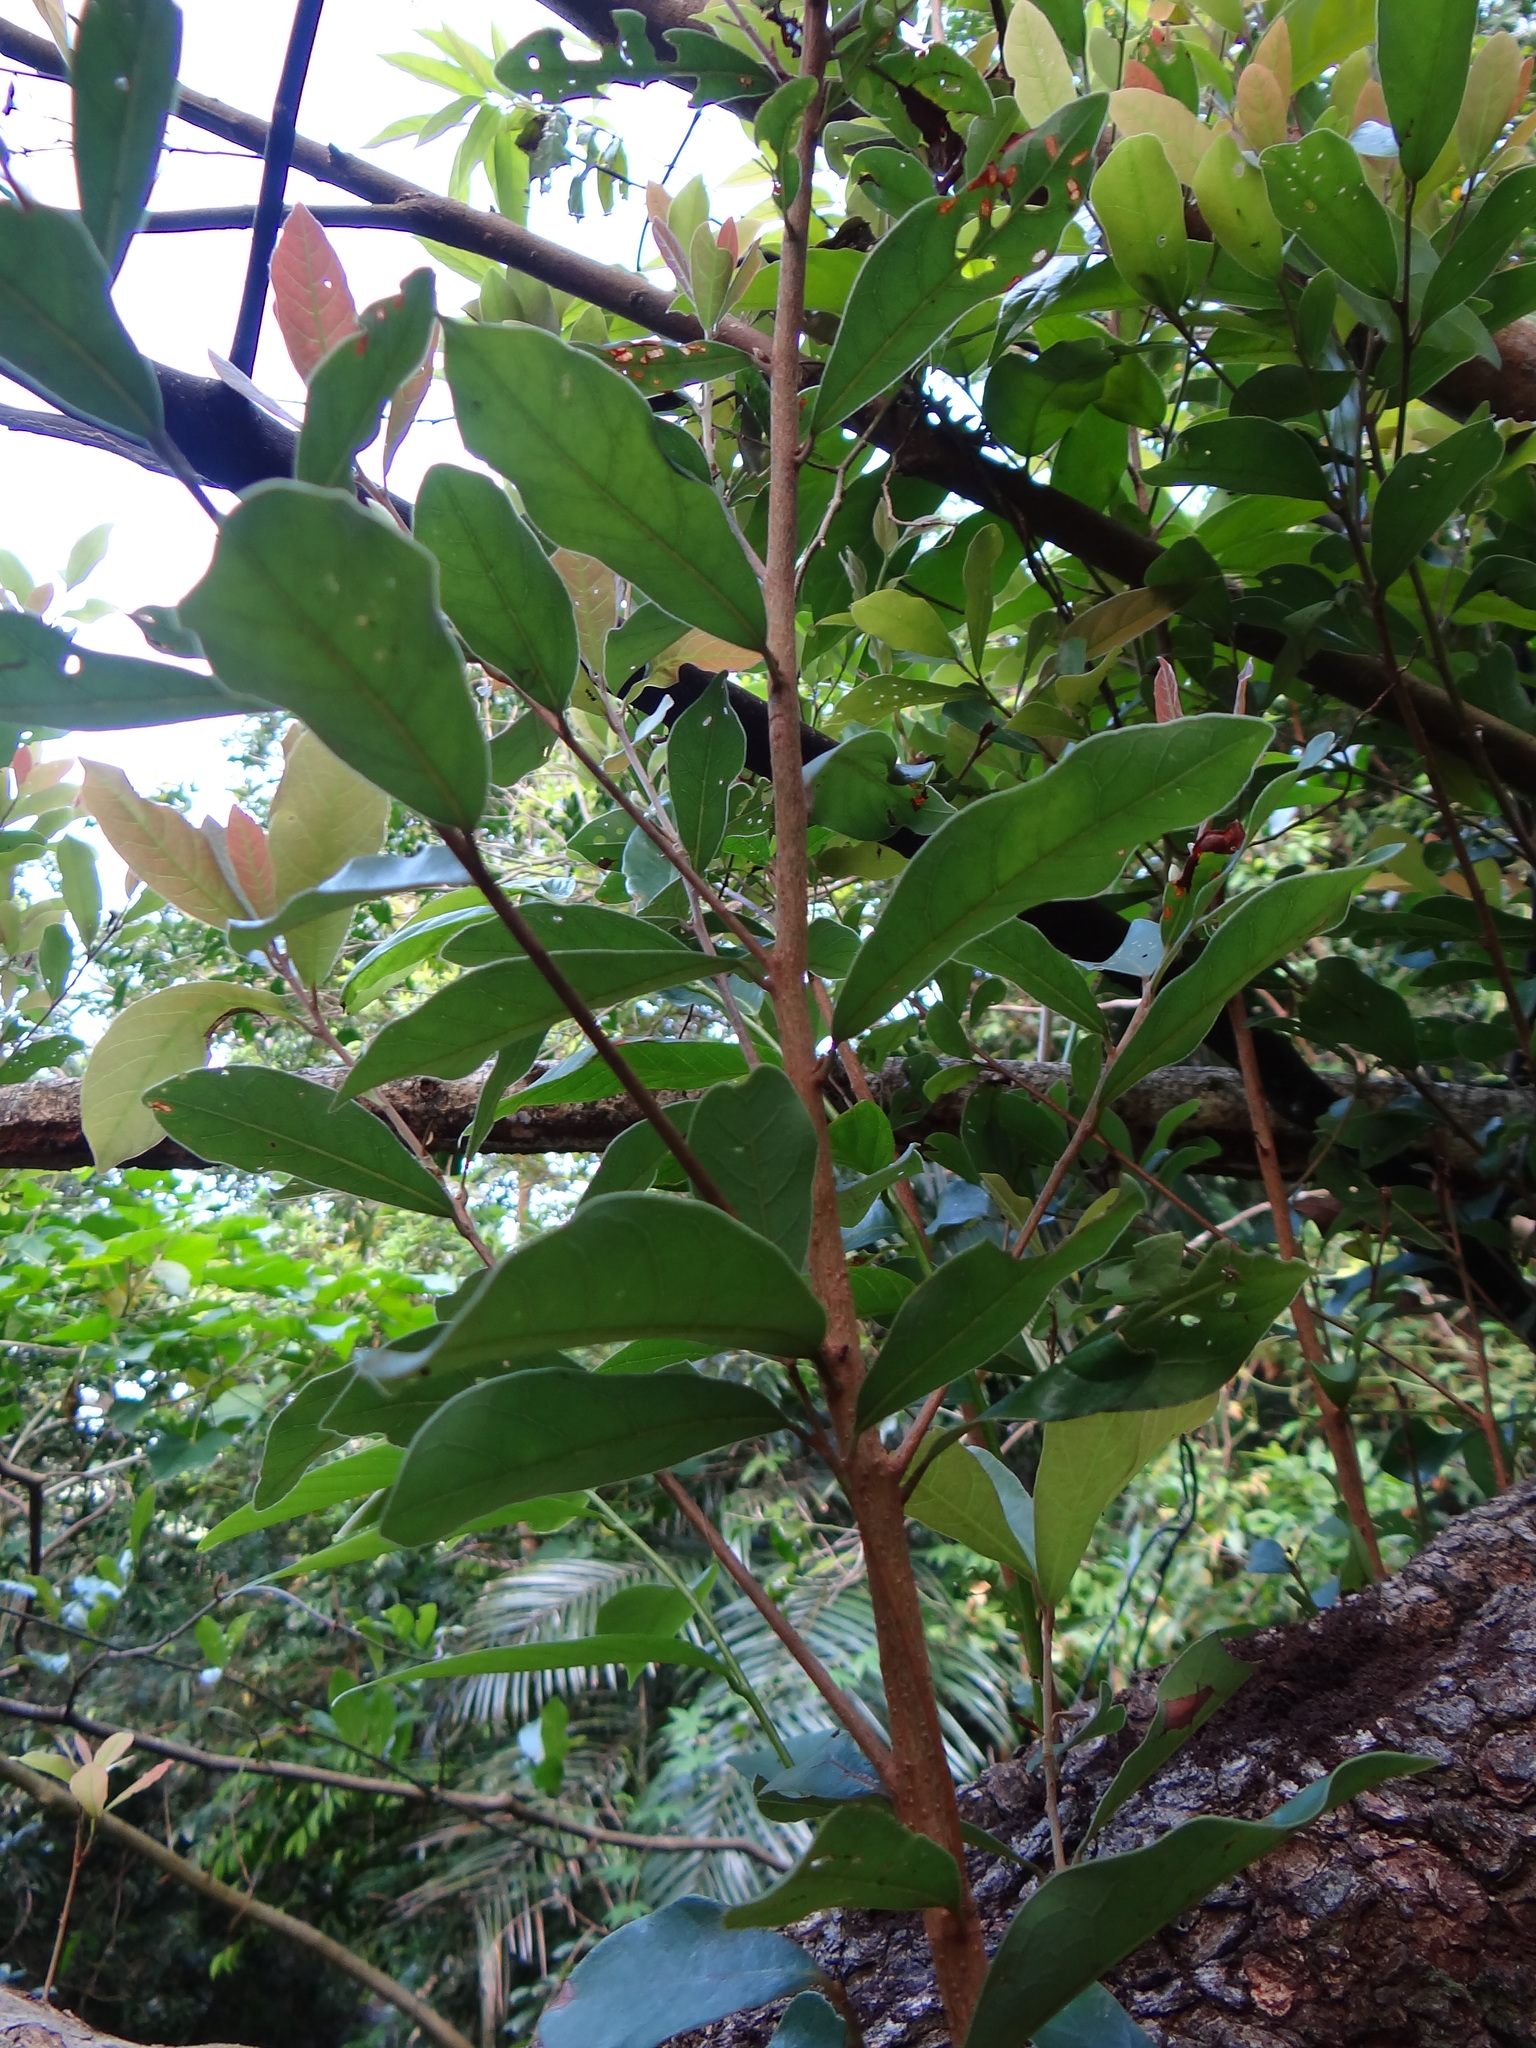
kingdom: Plantae
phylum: Tracheophyta
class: Magnoliopsida
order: Laurales
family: Lauraceae
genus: Litsea
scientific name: Litsea hypophaea
